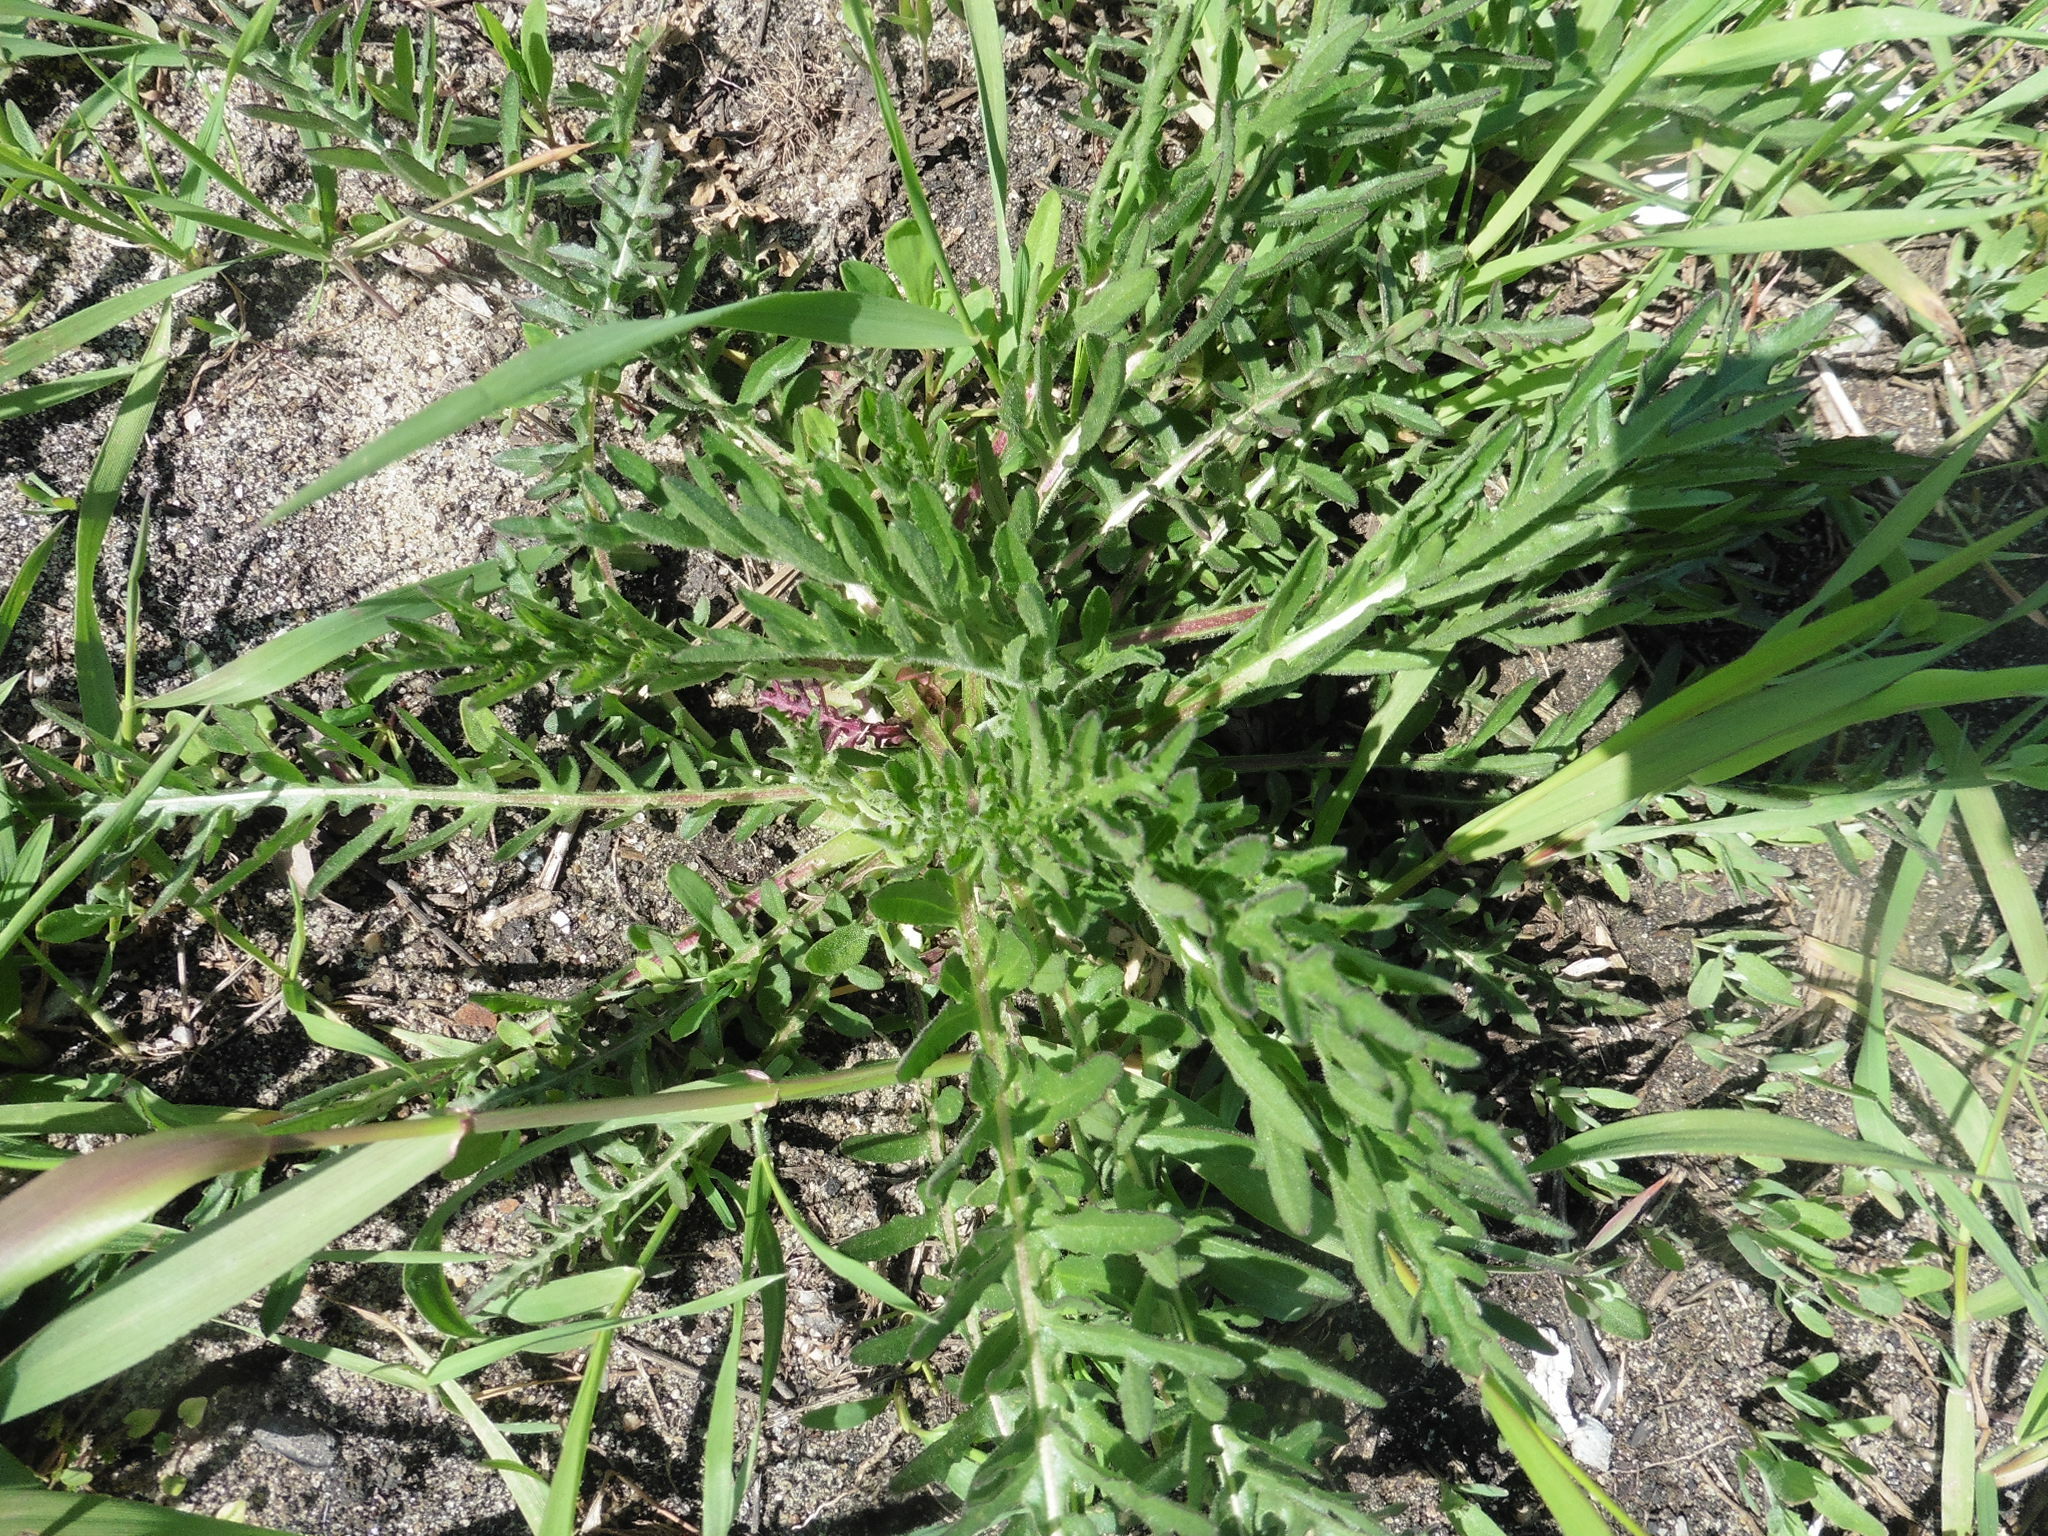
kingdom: Plantae
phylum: Tracheophyta
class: Magnoliopsida
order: Asterales
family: Asteraceae
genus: Centaurea
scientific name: Centaurea scabiosa
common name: Greater knapweed
